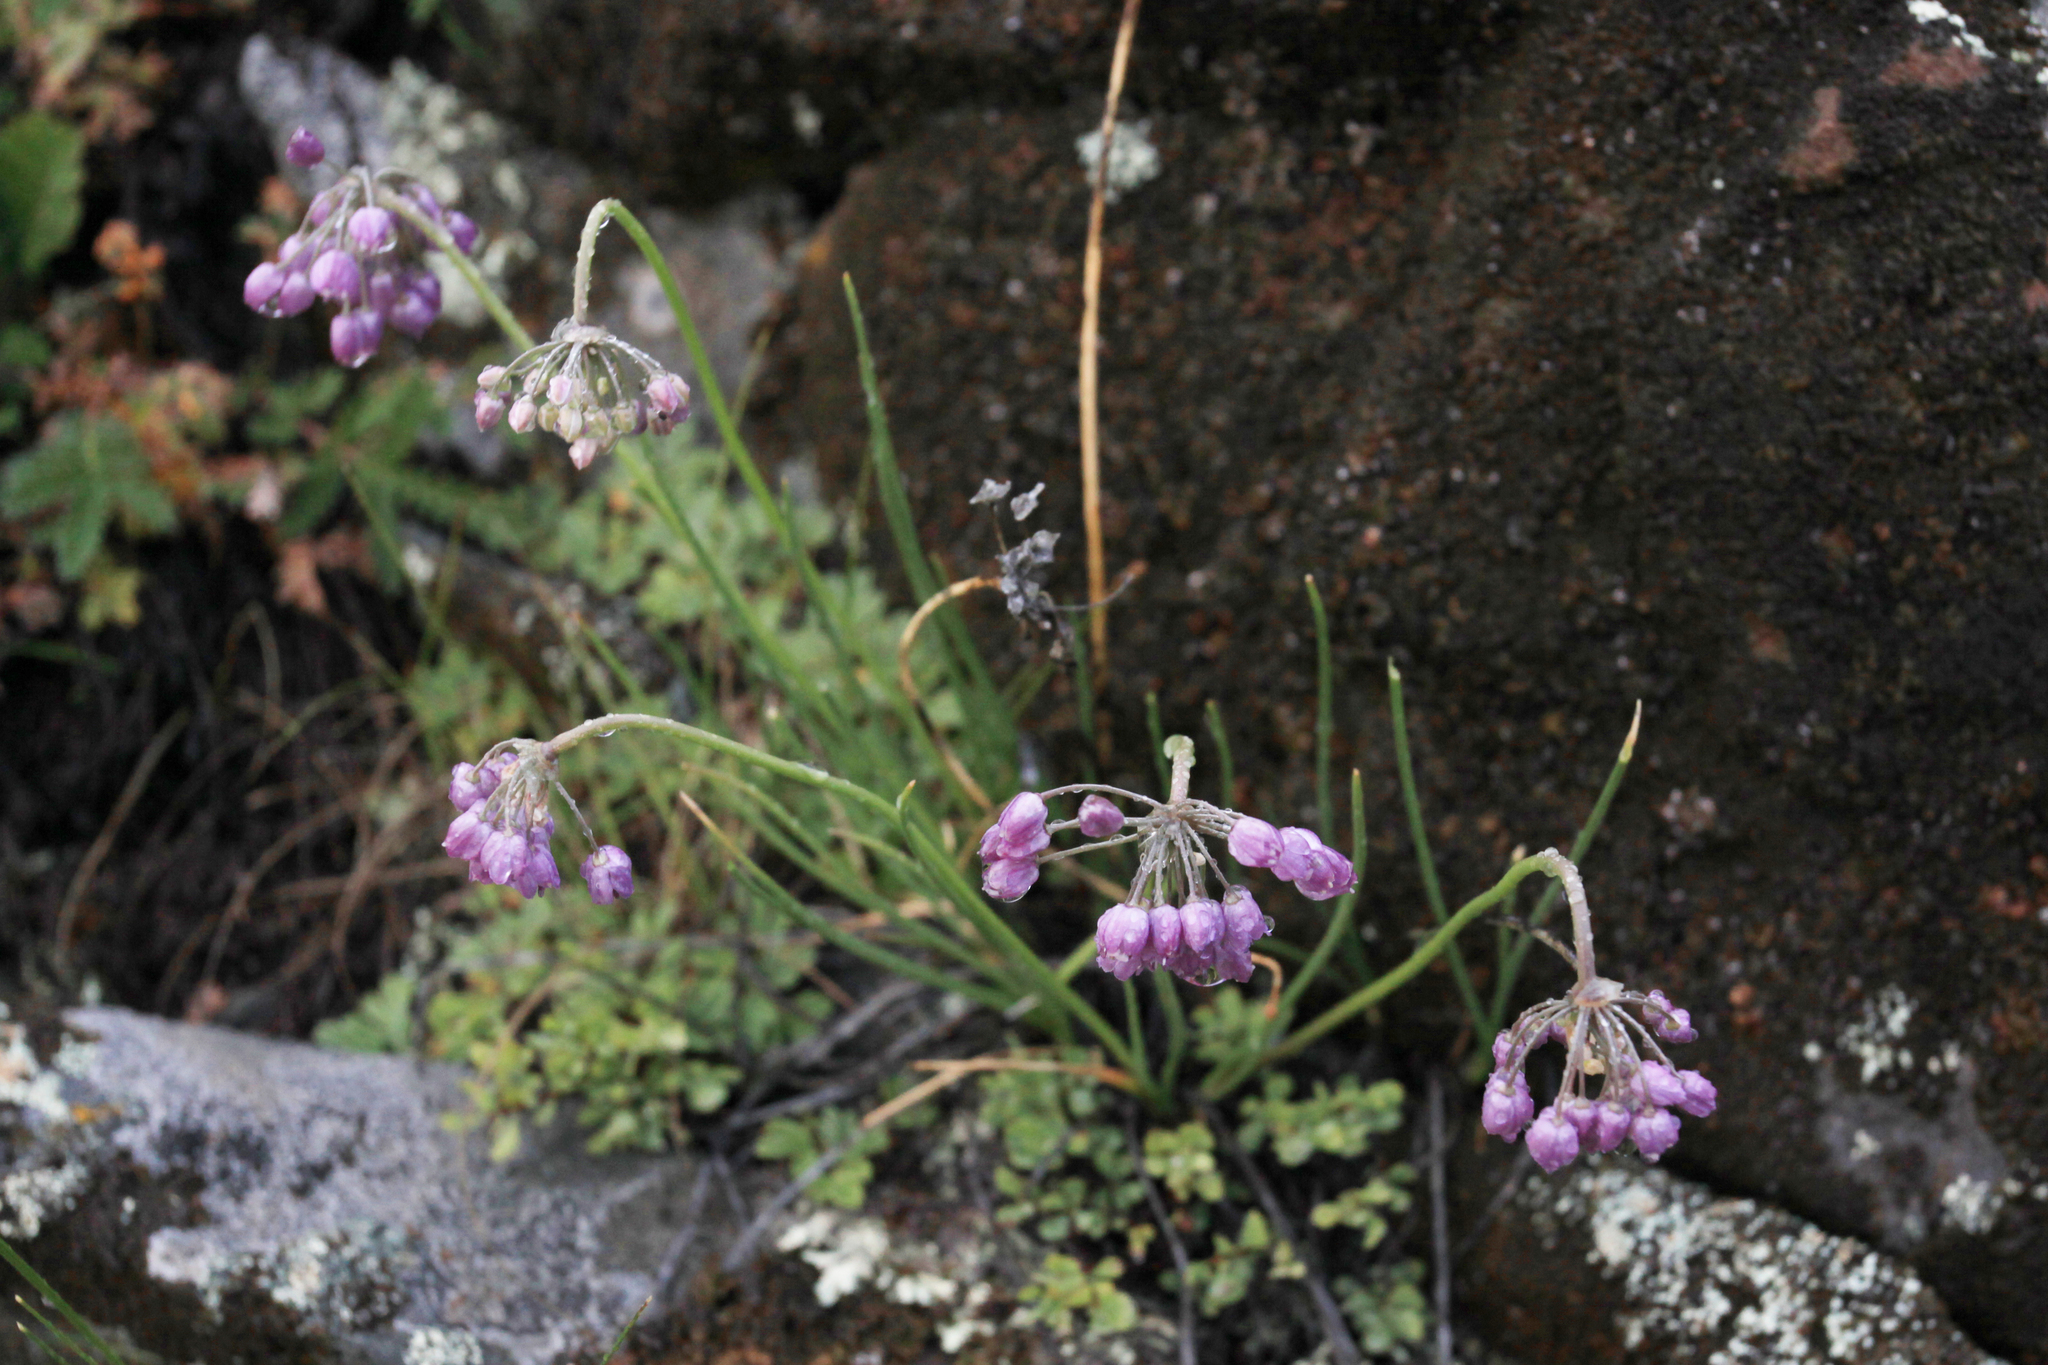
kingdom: Plantae
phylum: Tracheophyta
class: Liliopsida
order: Asparagales
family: Amaryllidaceae
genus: Allium
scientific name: Allium rubens
